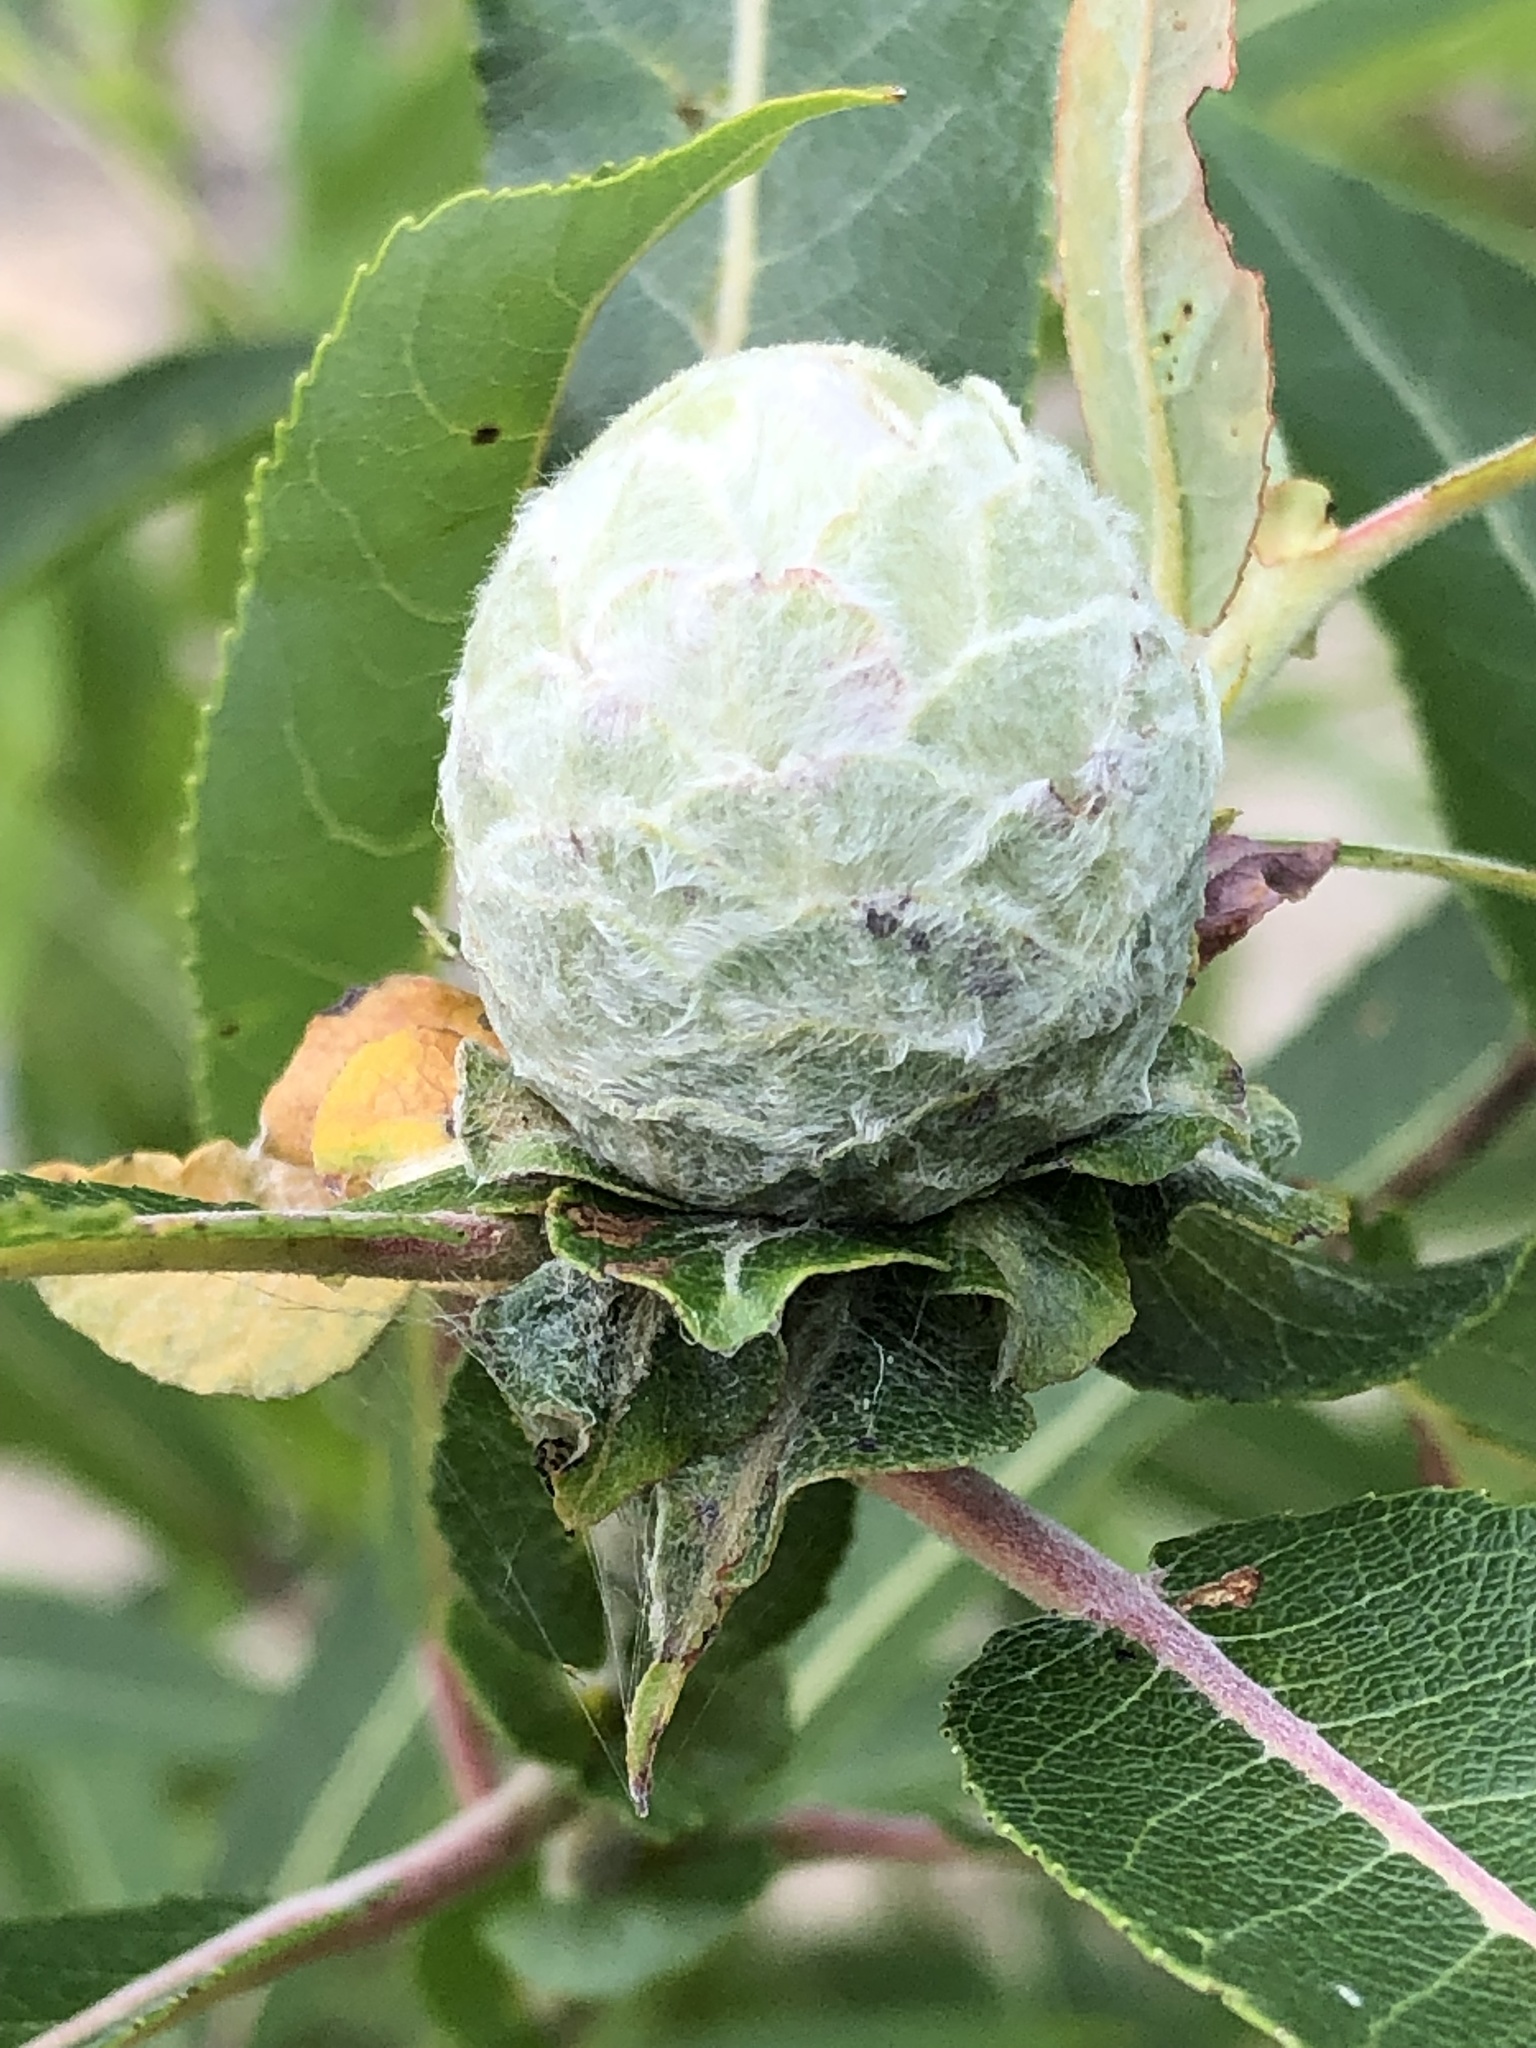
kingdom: Animalia
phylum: Arthropoda
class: Insecta
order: Diptera
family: Cecidomyiidae
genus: Rabdophaga
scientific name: Rabdophaga strobiloides
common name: Willow pinecone gall midge
